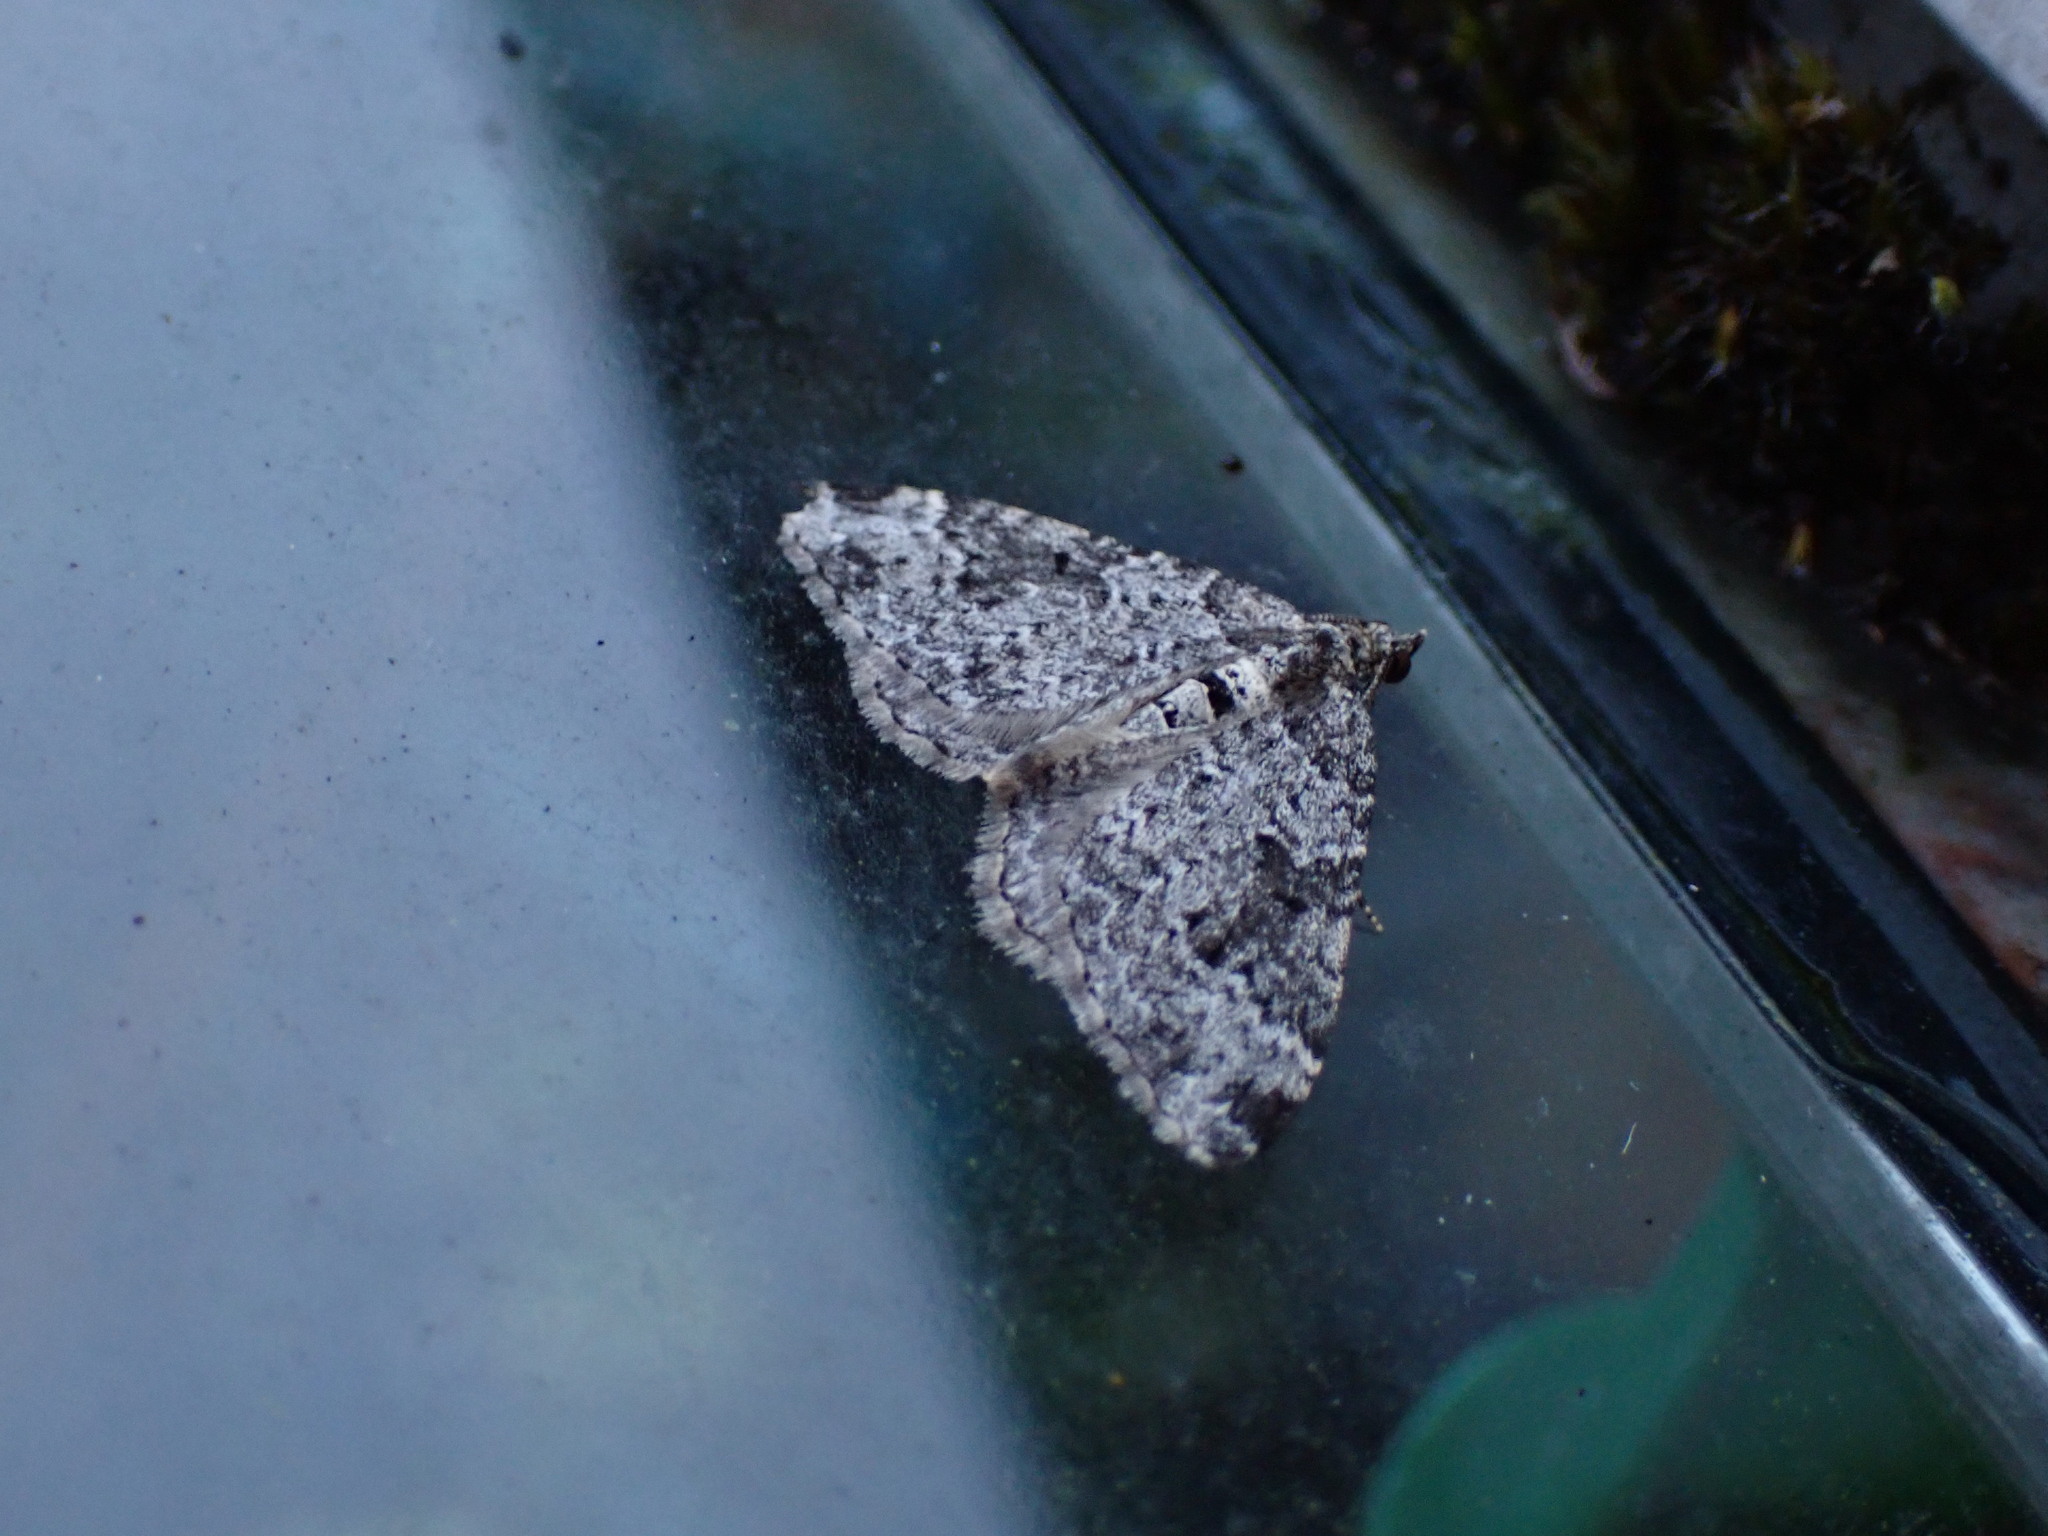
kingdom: Animalia
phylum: Arthropoda
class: Insecta
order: Lepidoptera
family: Geometridae
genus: Xanthorhoe
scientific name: Xanthorhoe fluctuata
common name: Garden carpet
